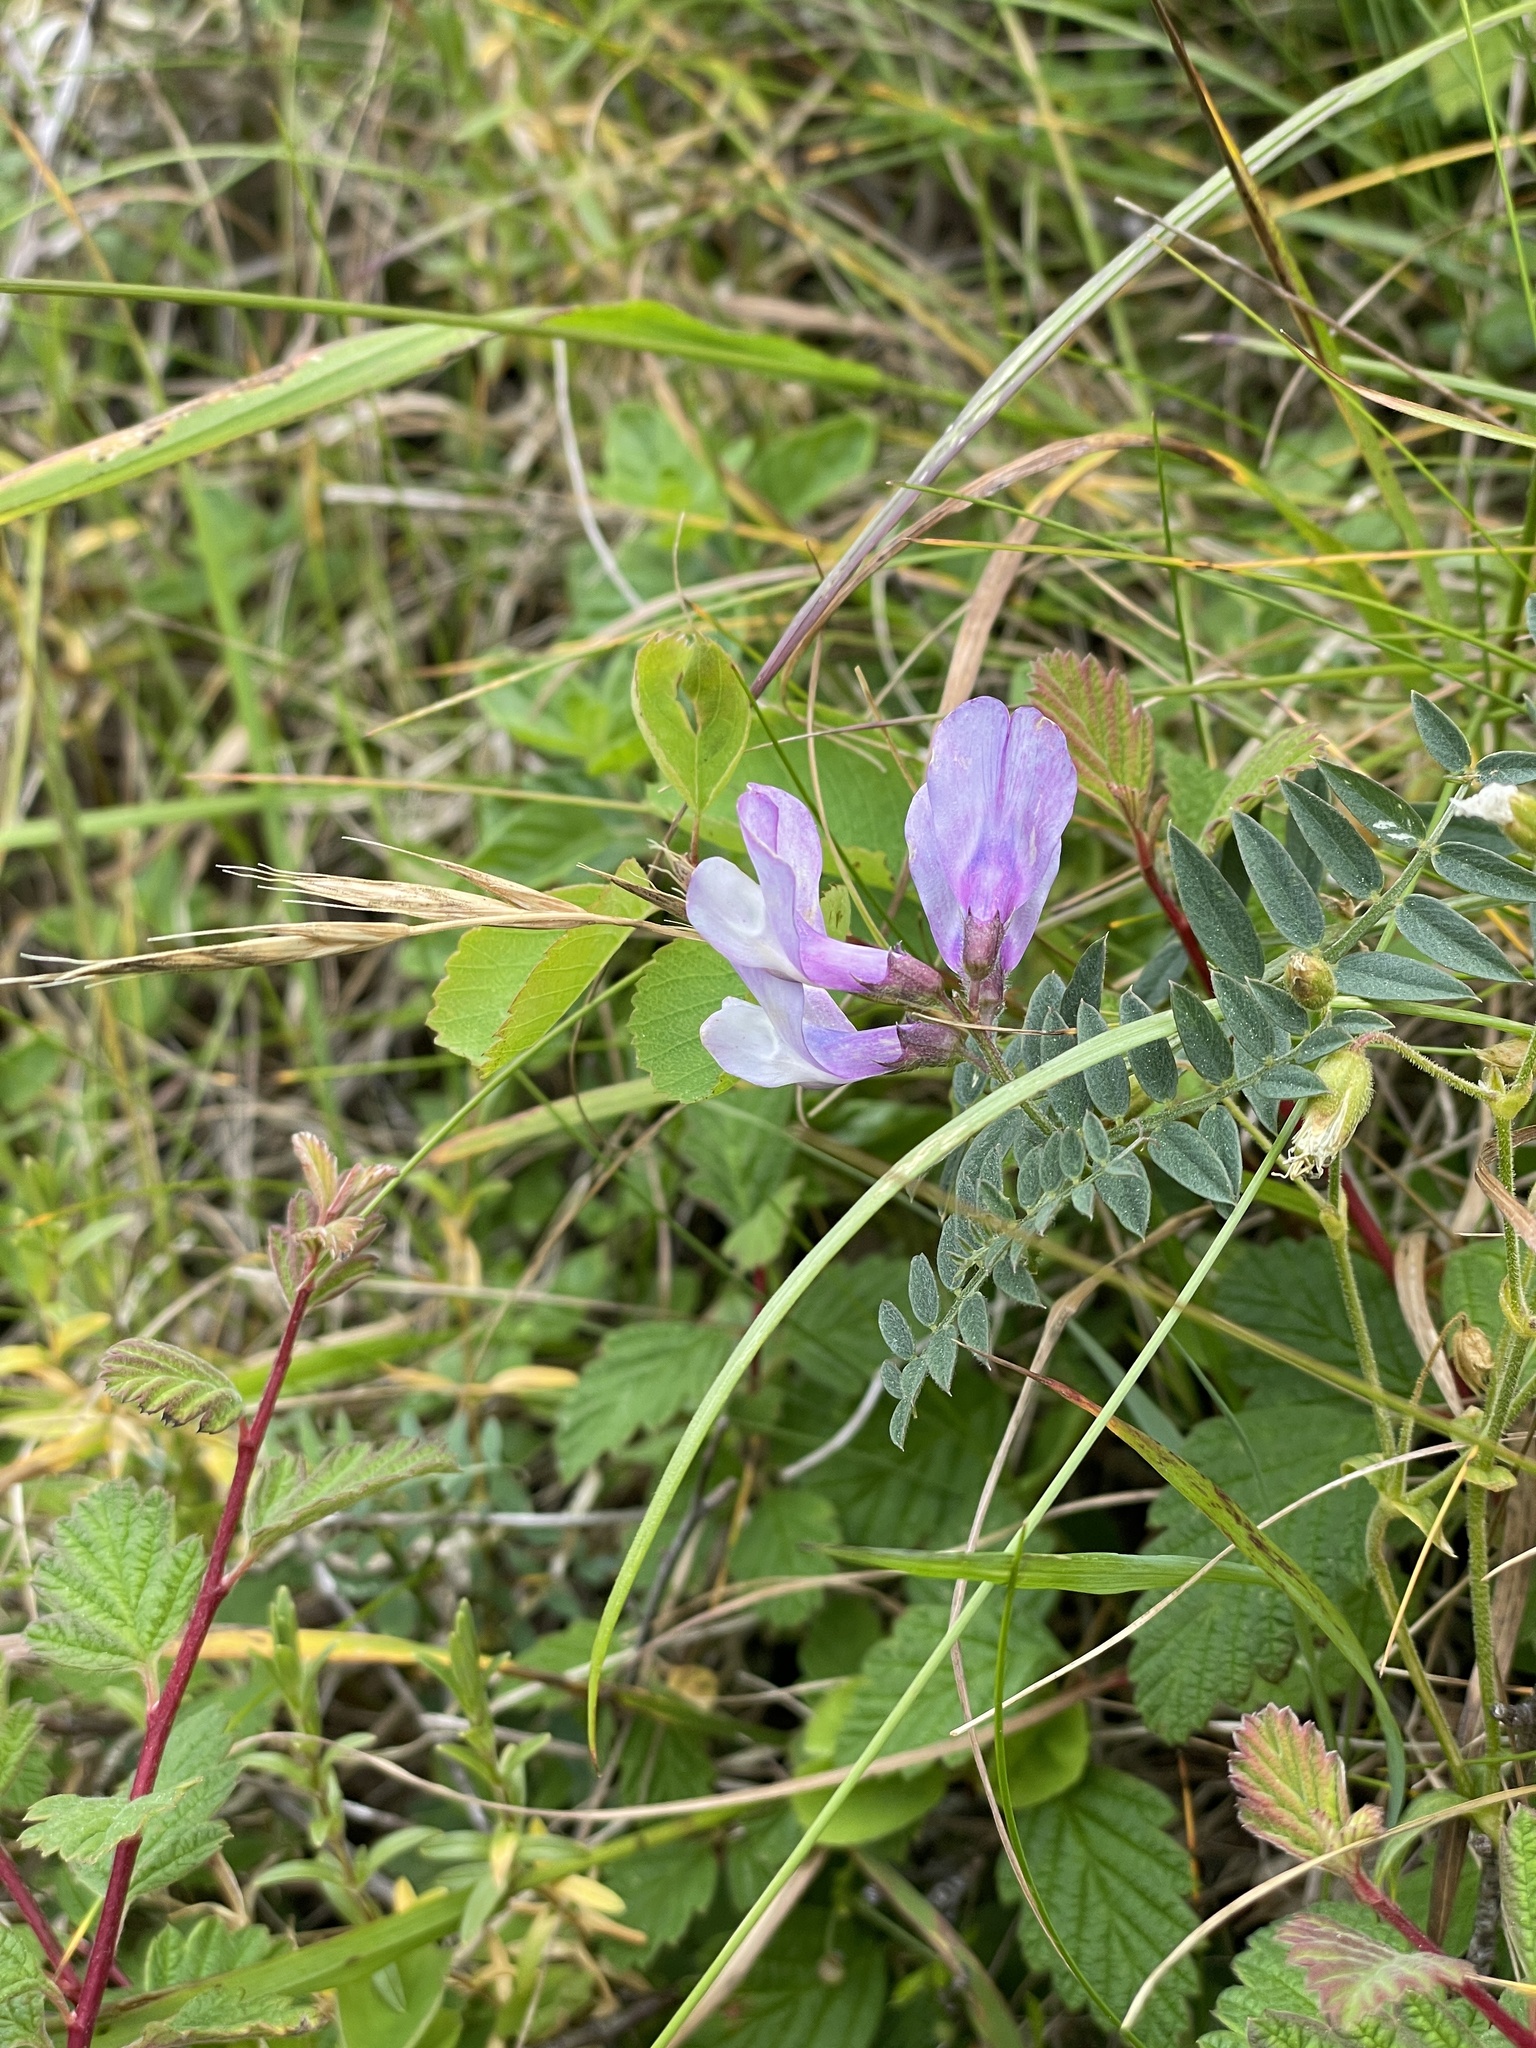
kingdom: Plantae
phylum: Tracheophyta
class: Magnoliopsida
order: Fabales
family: Fabaceae
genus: Vicia
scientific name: Vicia americana
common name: American vetch
